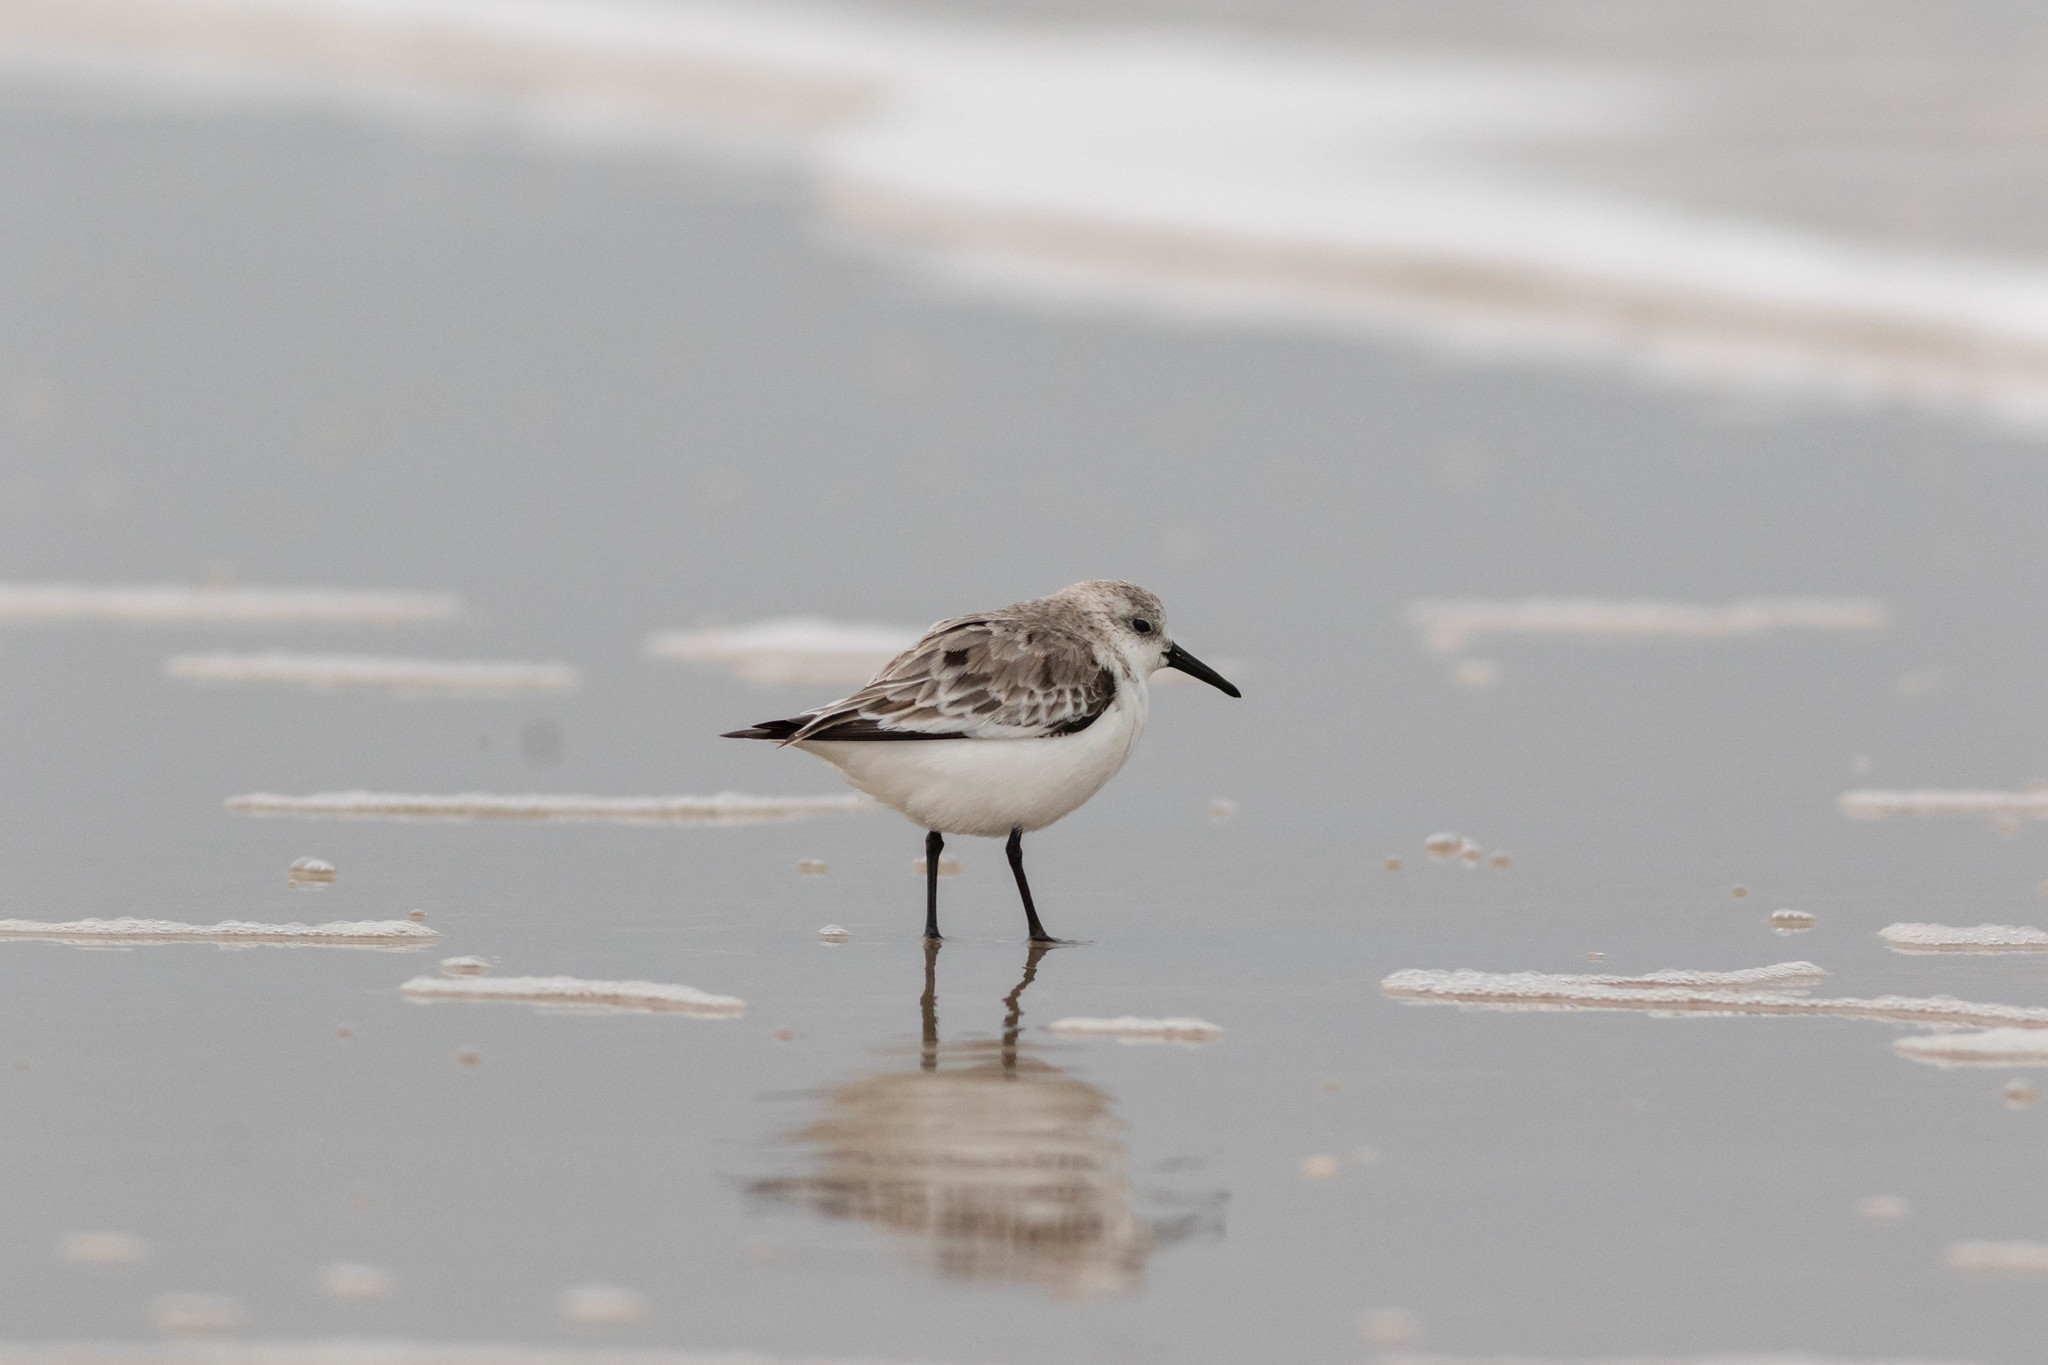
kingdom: Animalia
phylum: Chordata
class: Aves
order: Charadriiformes
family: Scolopacidae
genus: Calidris
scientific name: Calidris alba
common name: Sanderling
